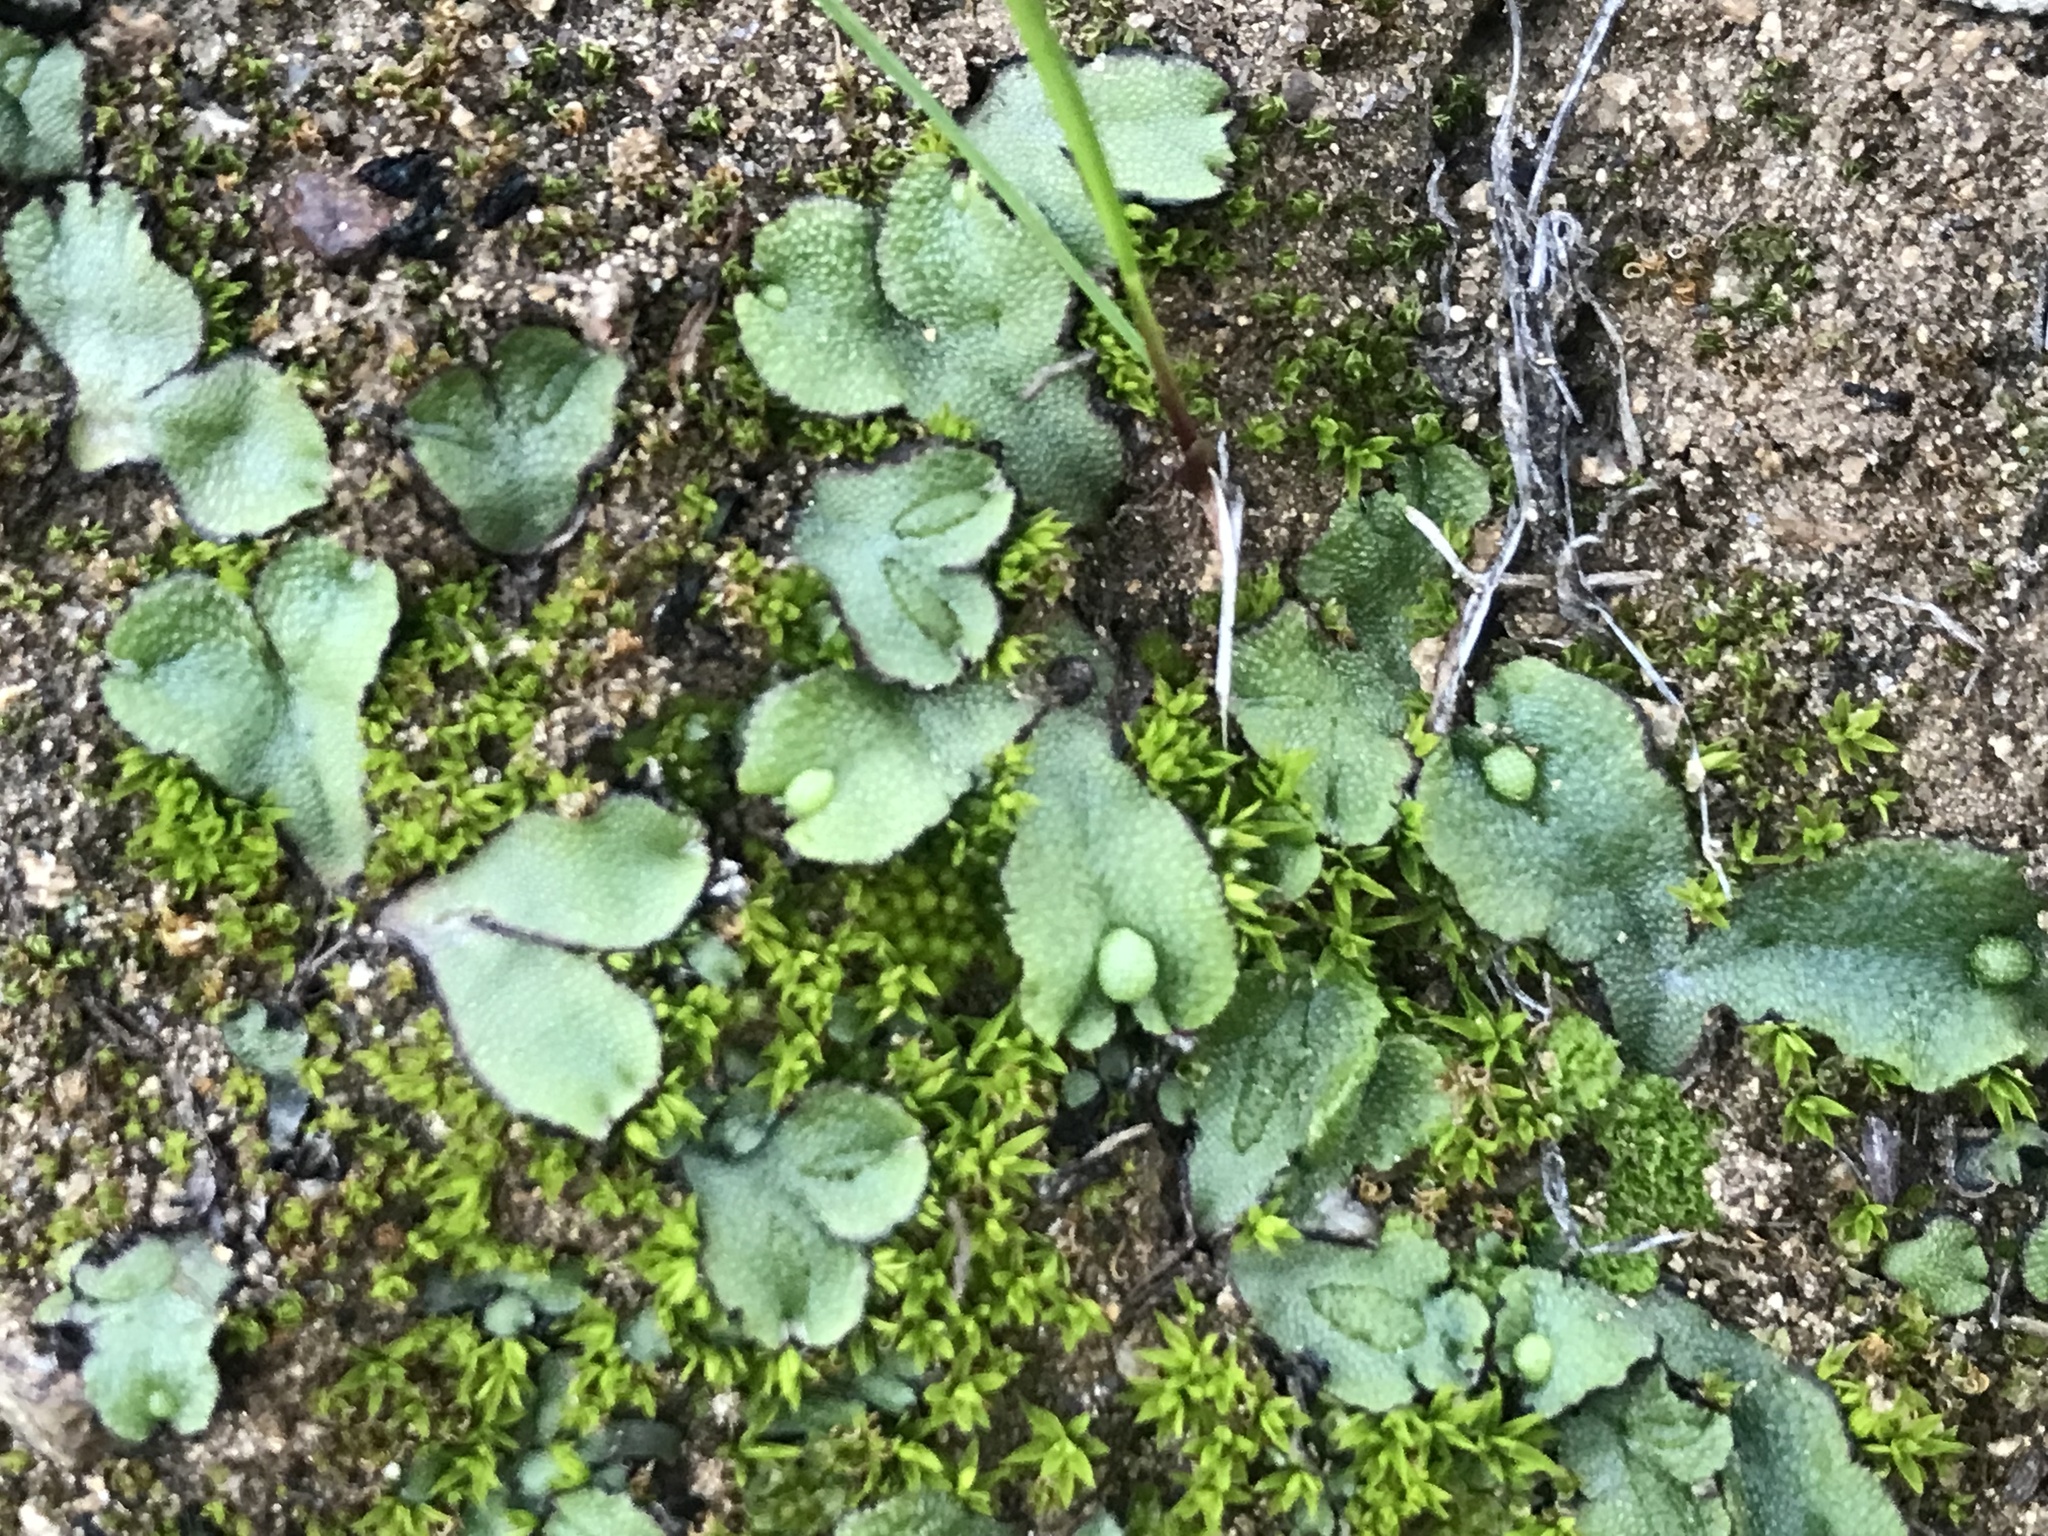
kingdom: Plantae
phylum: Marchantiophyta
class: Marchantiopsida
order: Marchantiales
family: Aytoniaceae
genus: Asterella
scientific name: Asterella californica
